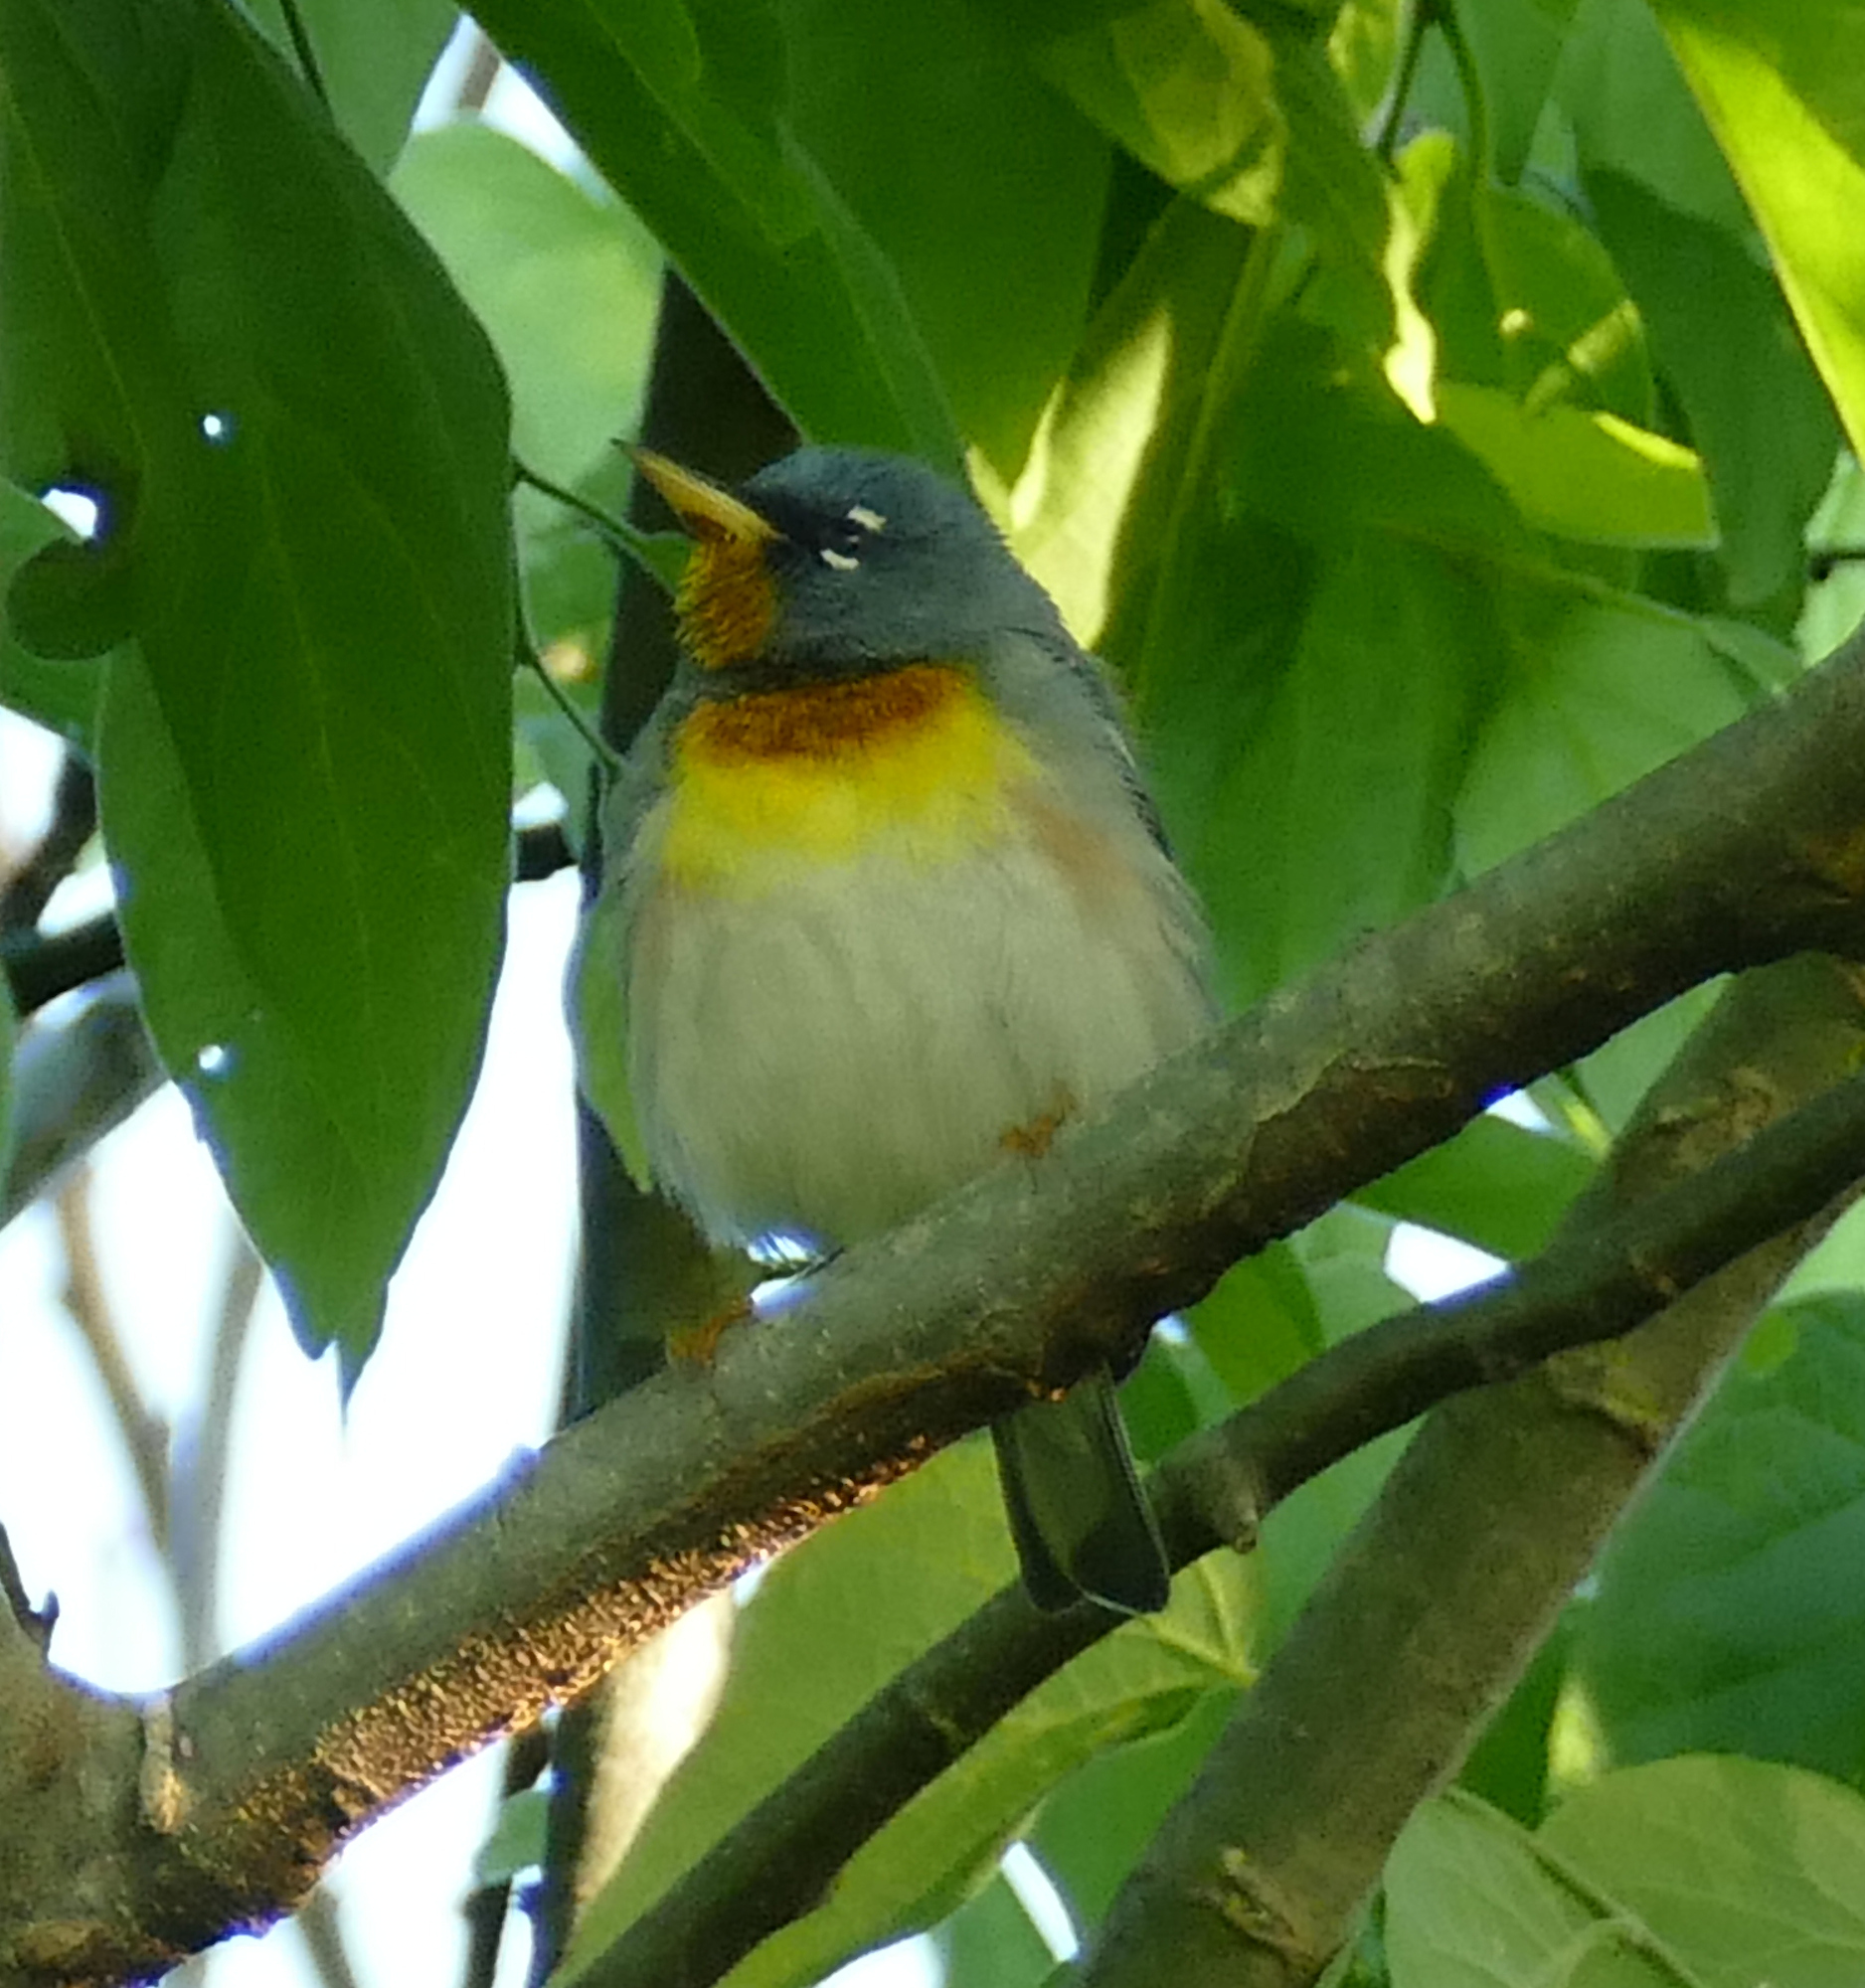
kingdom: Animalia
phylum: Chordata
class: Aves
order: Passeriformes
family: Parulidae
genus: Setophaga
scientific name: Setophaga americana
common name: Northern parula
